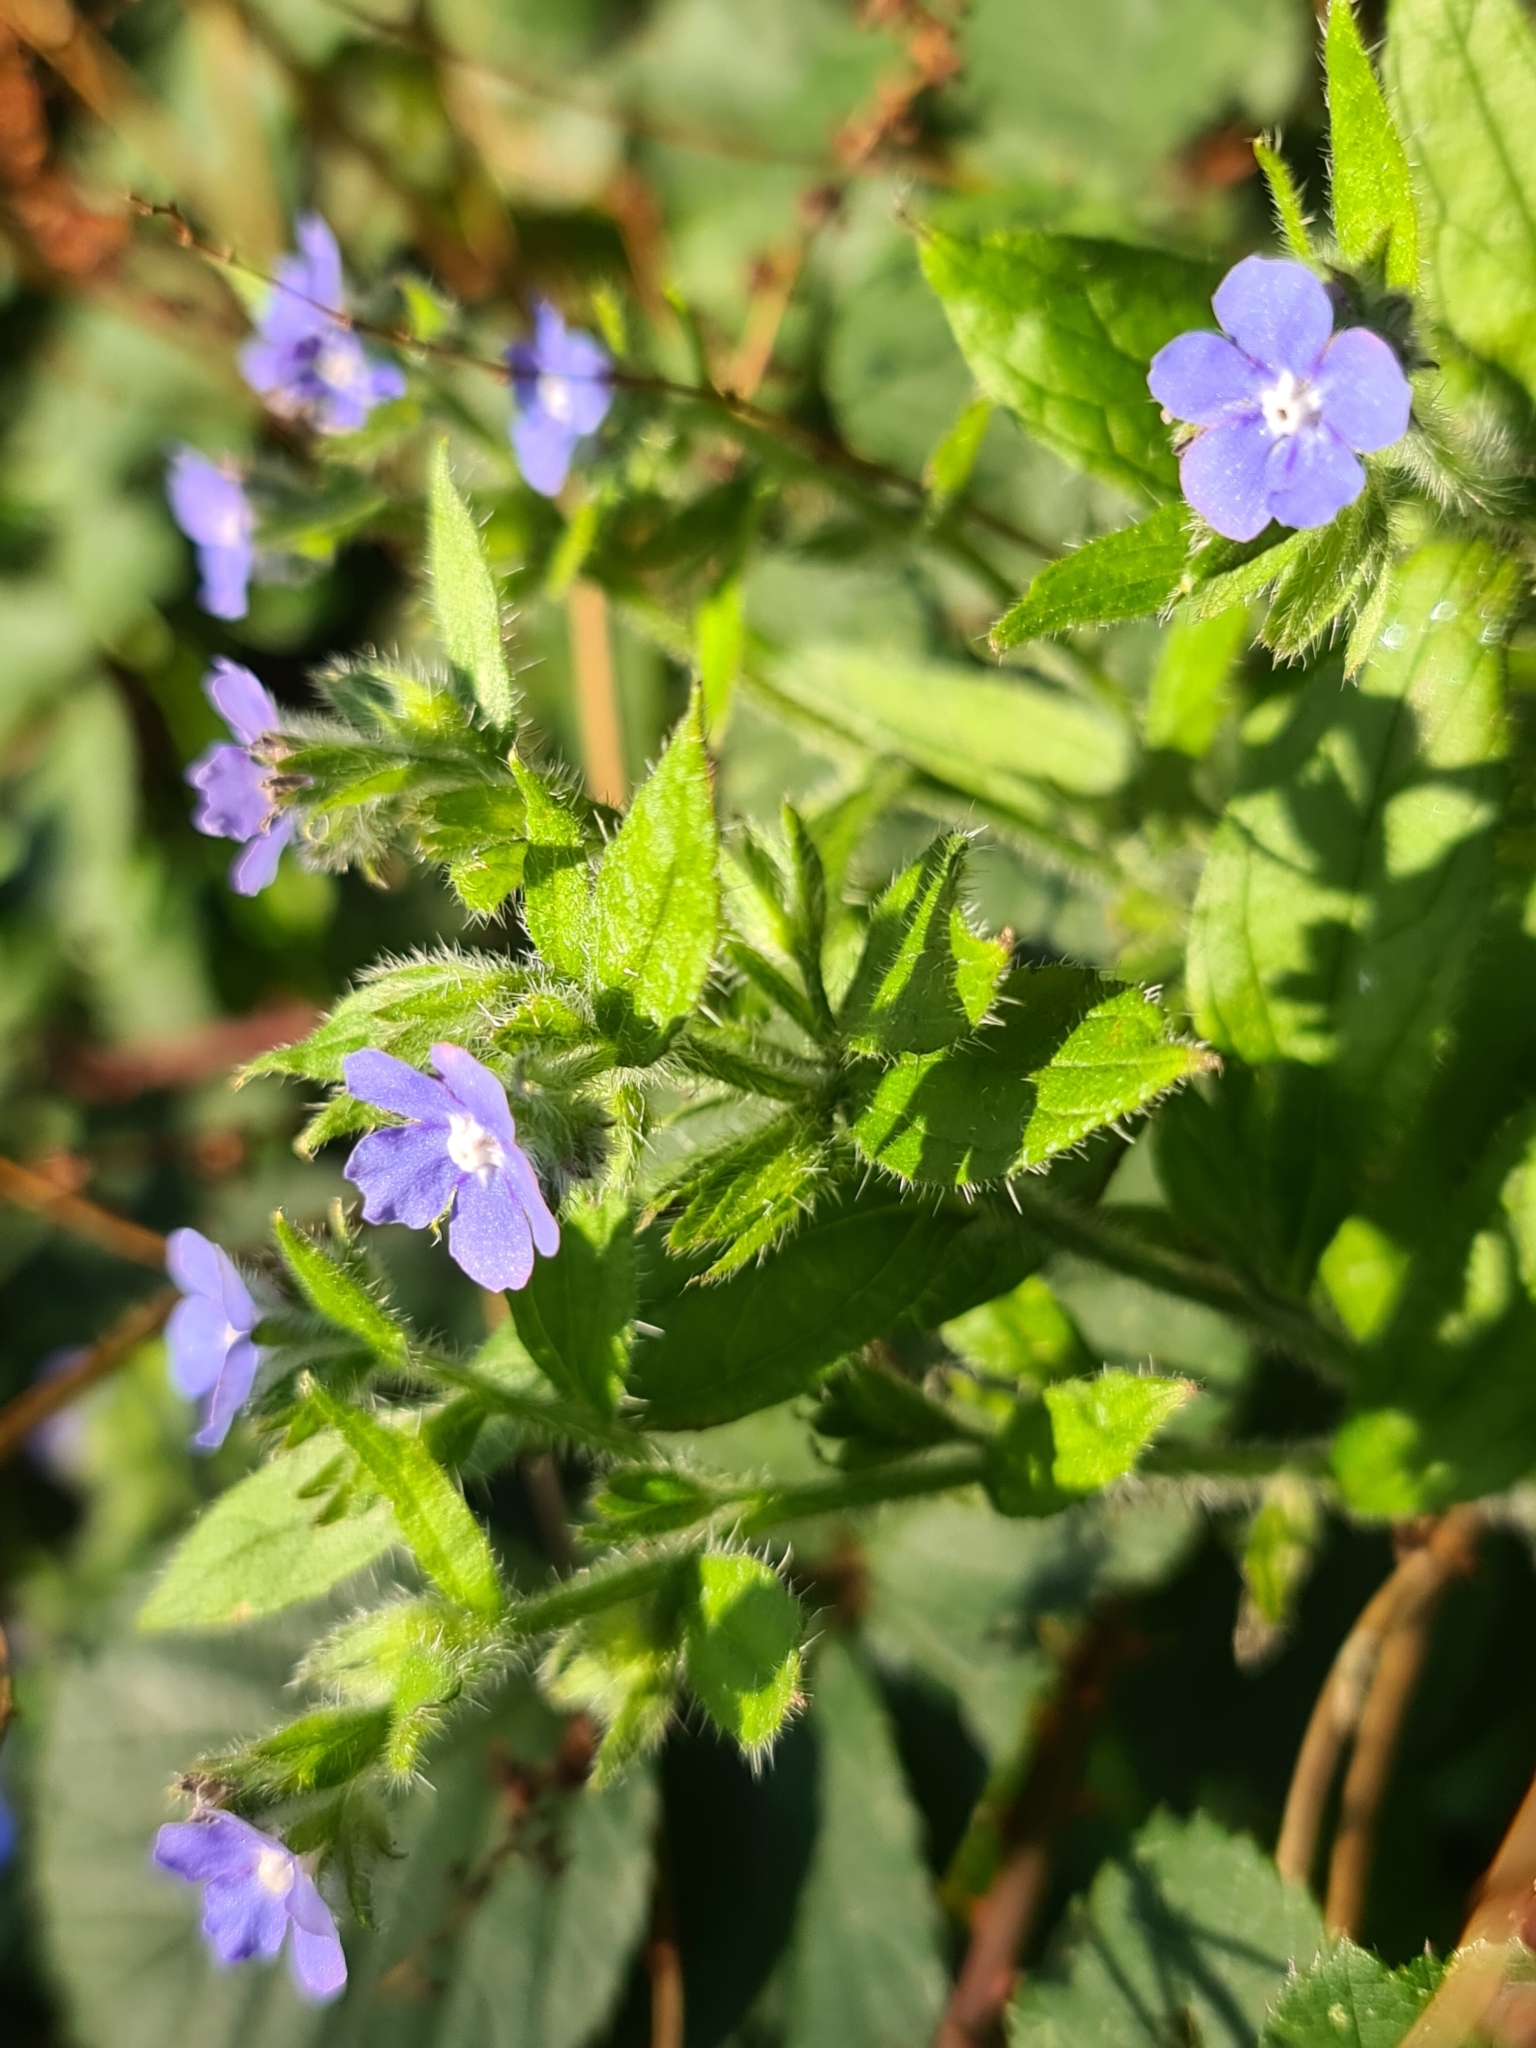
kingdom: Plantae
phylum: Tracheophyta
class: Magnoliopsida
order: Boraginales
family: Boraginaceae
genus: Pentaglottis
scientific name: Pentaglottis sempervirens
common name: Green alkanet
